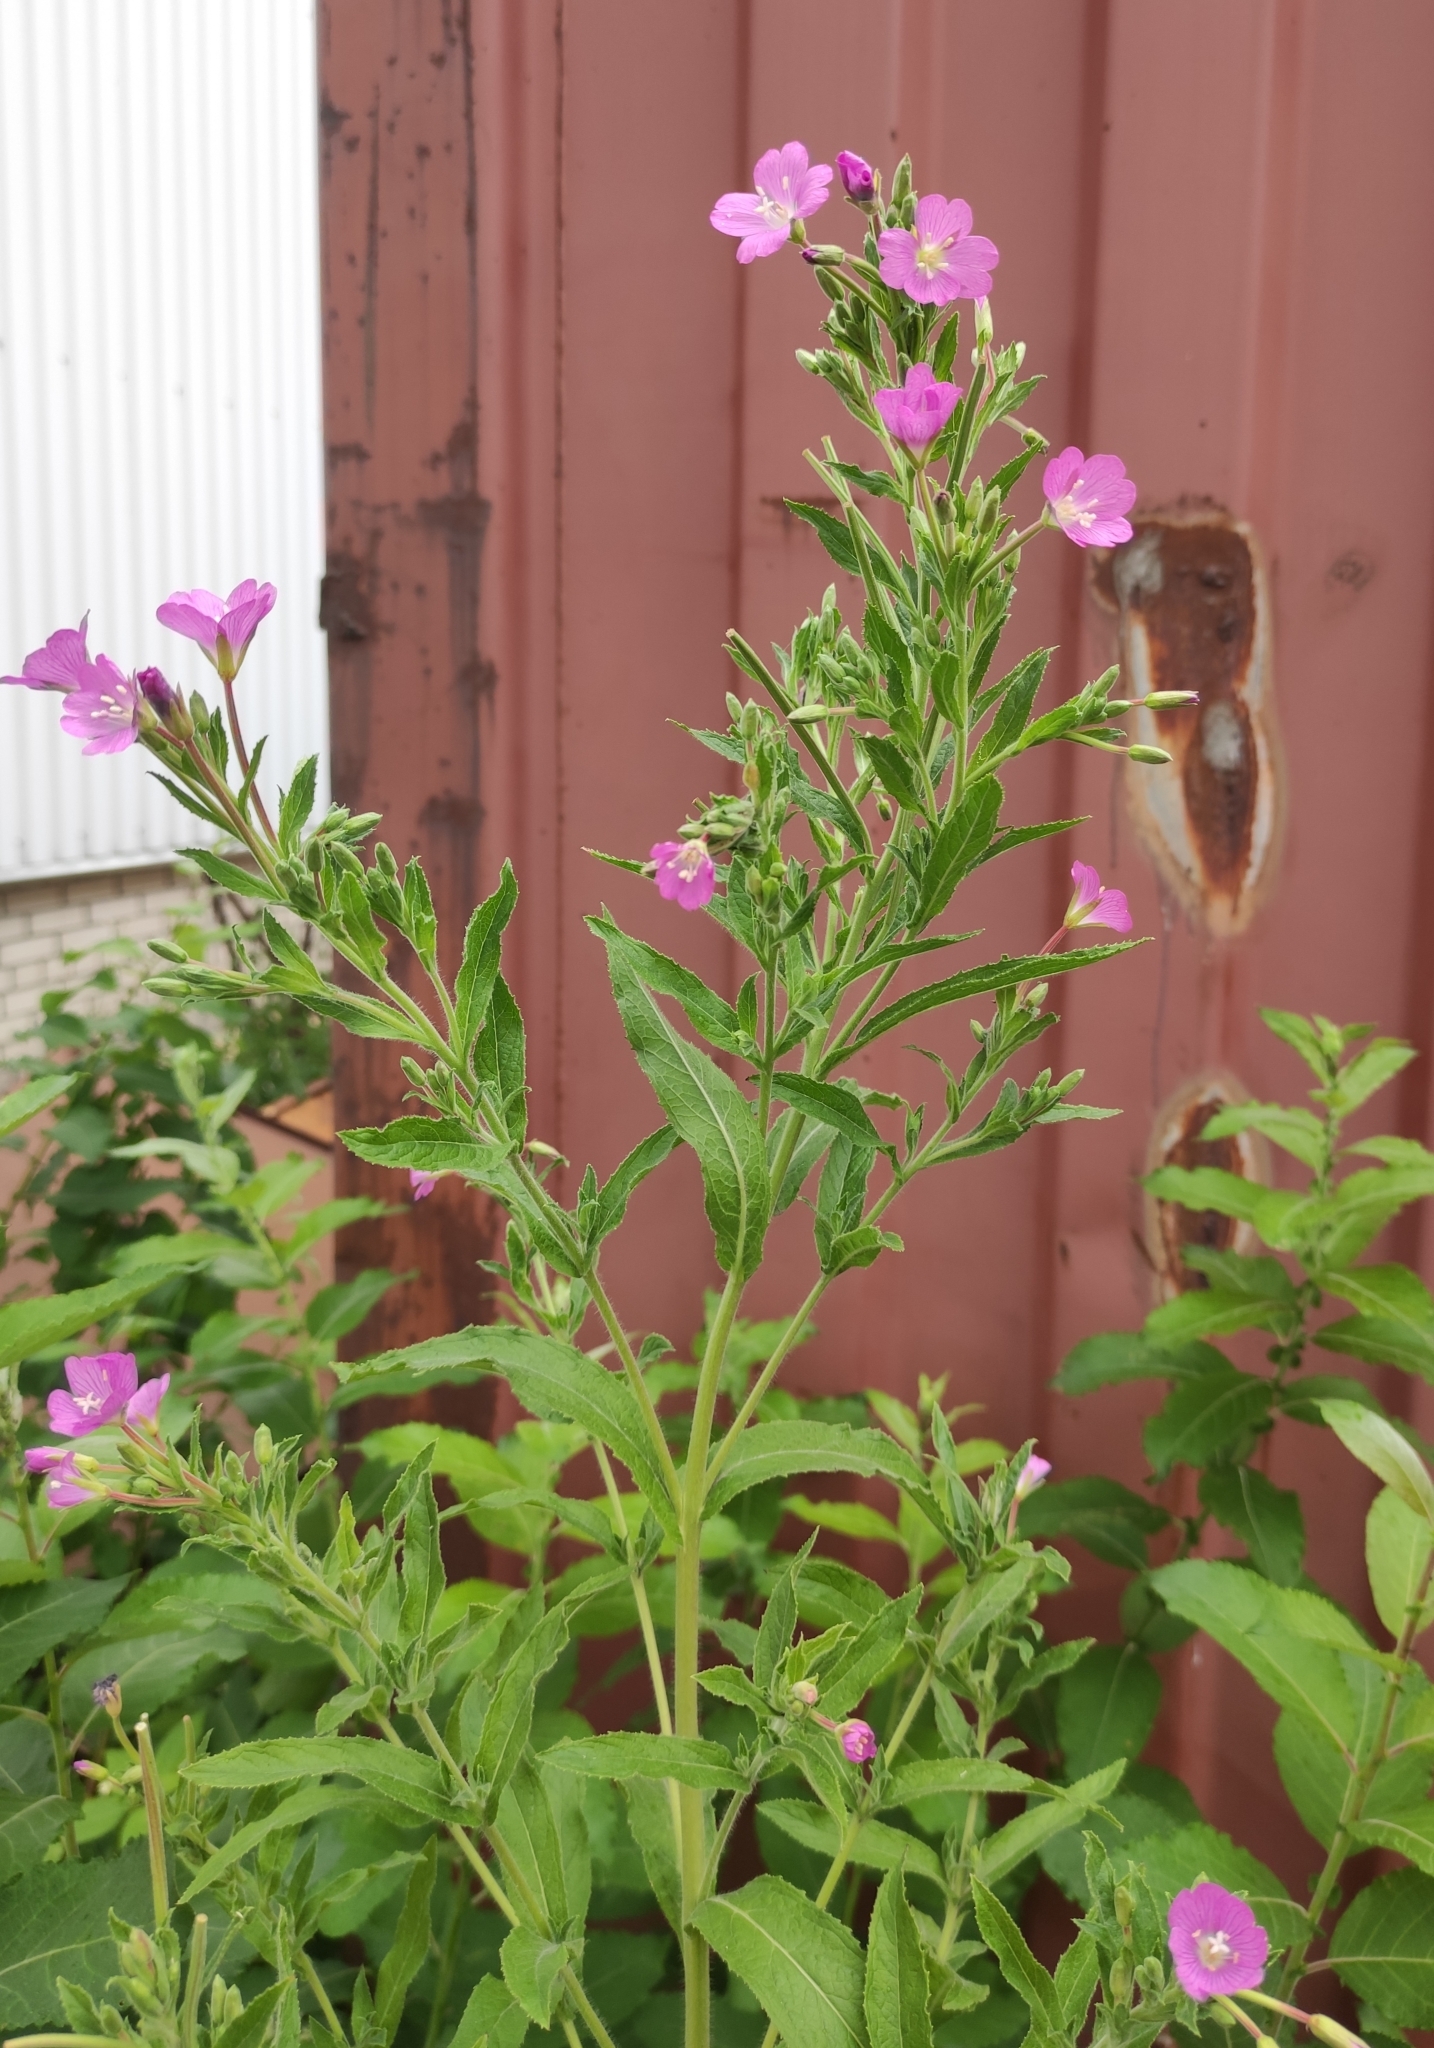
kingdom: Plantae
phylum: Tracheophyta
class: Magnoliopsida
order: Myrtales
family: Onagraceae
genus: Epilobium
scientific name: Epilobium hirsutum
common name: Great willowherb
